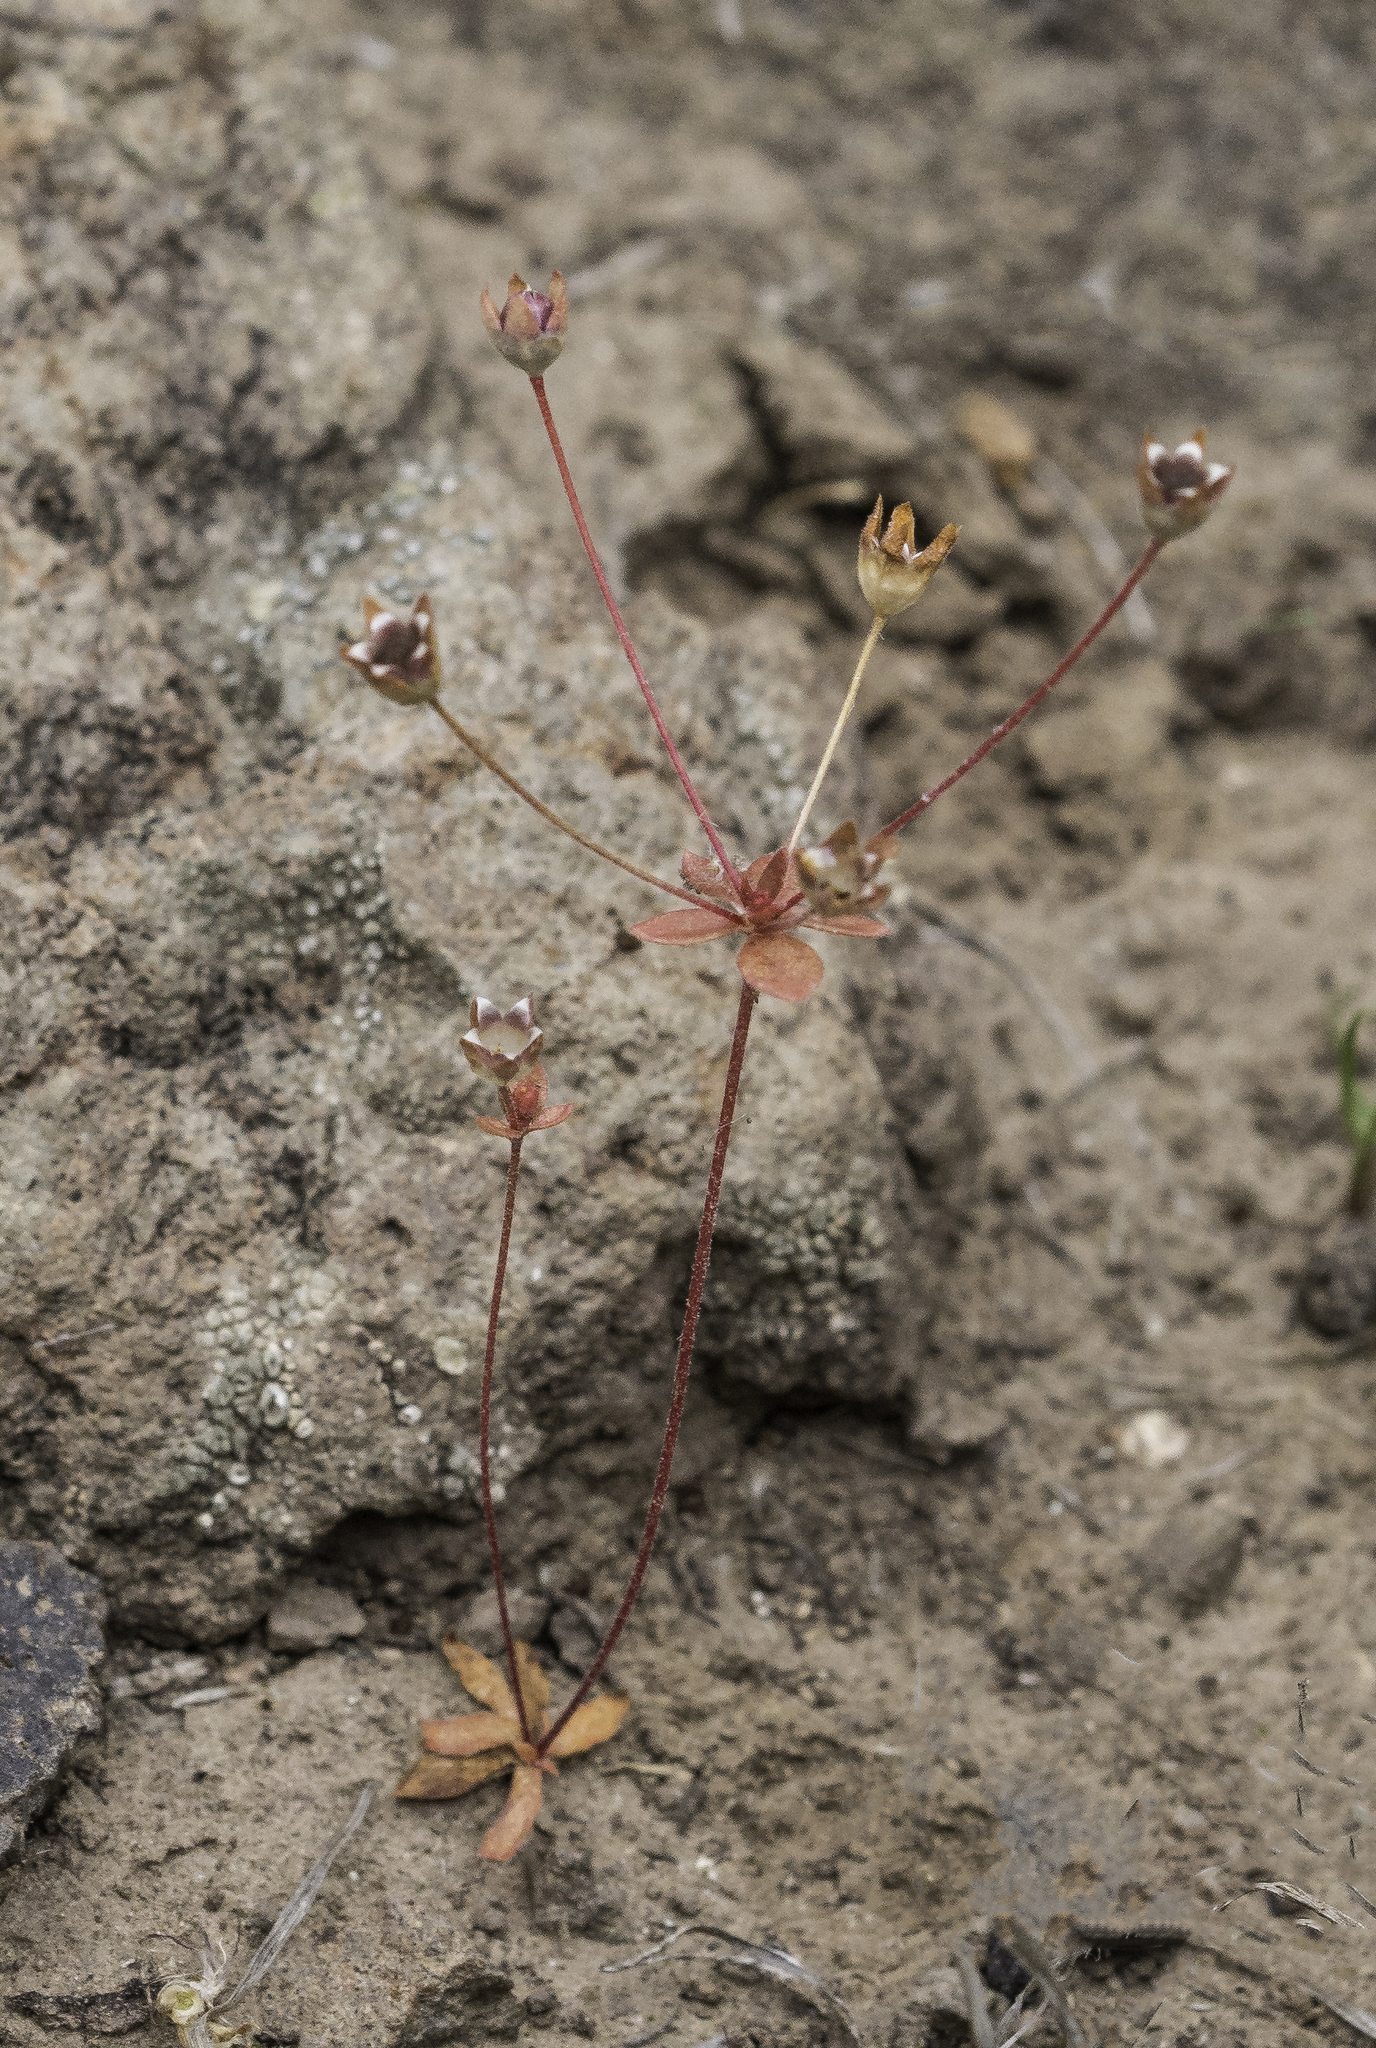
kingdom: Plantae
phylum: Tracheophyta
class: Magnoliopsida
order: Ericales
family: Primulaceae
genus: Androsace
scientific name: Androsace occidentalis
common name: West rock-jasmine
